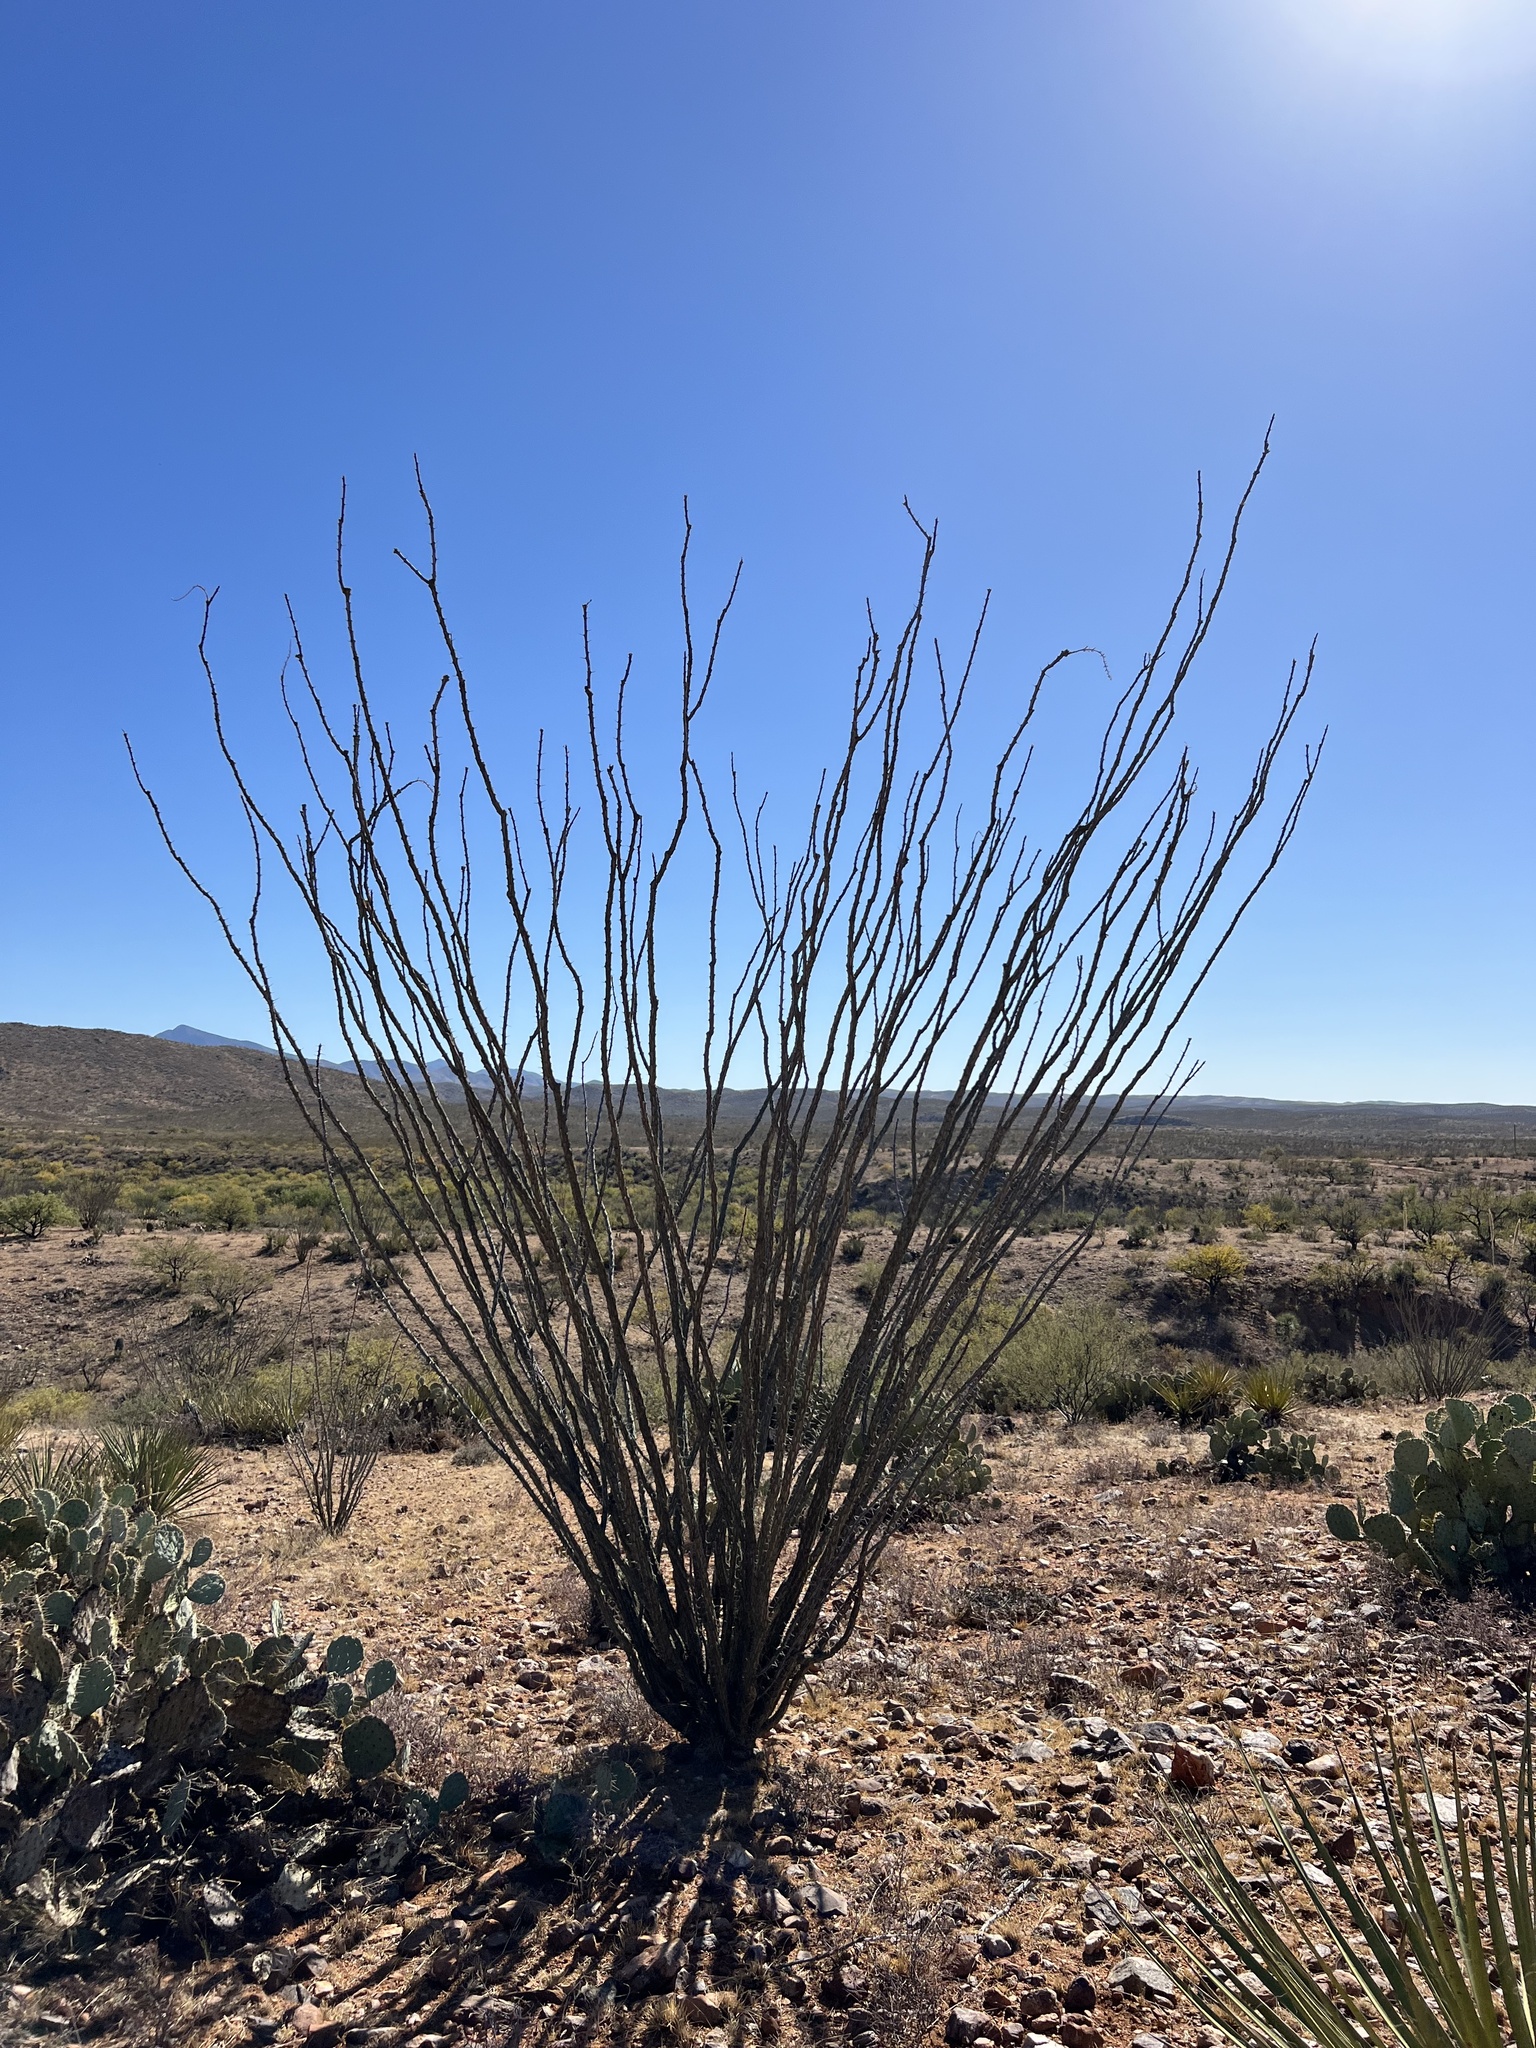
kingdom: Plantae
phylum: Tracheophyta
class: Magnoliopsida
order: Ericales
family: Fouquieriaceae
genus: Fouquieria
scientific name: Fouquieria splendens
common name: Vine-cactus
